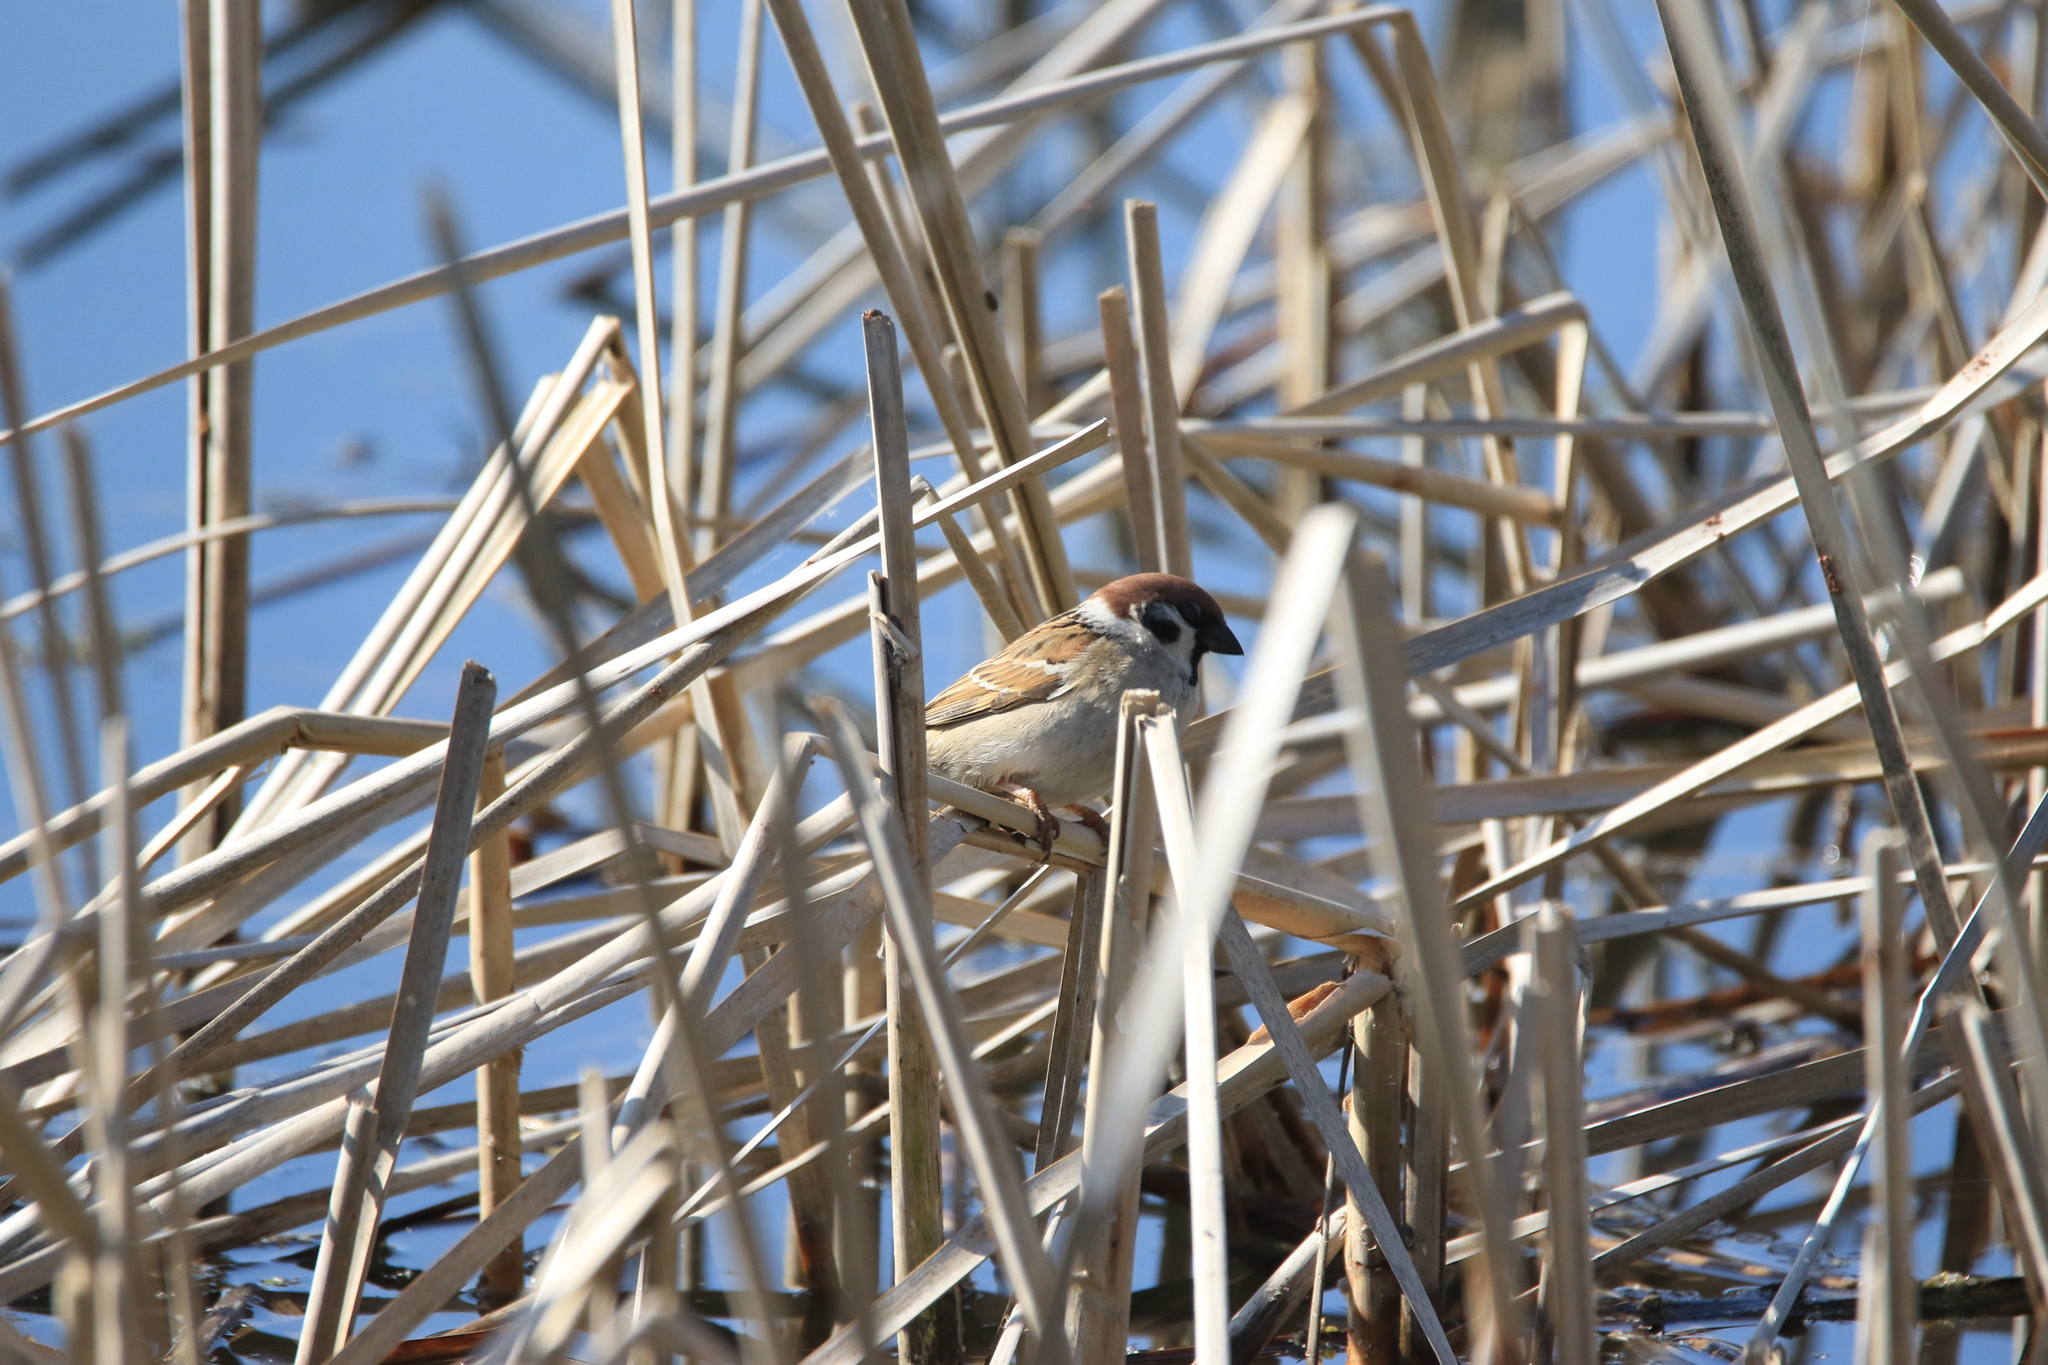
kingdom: Animalia
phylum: Chordata
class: Aves
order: Passeriformes
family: Passeridae
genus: Passer
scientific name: Passer montanus
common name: Eurasian tree sparrow
